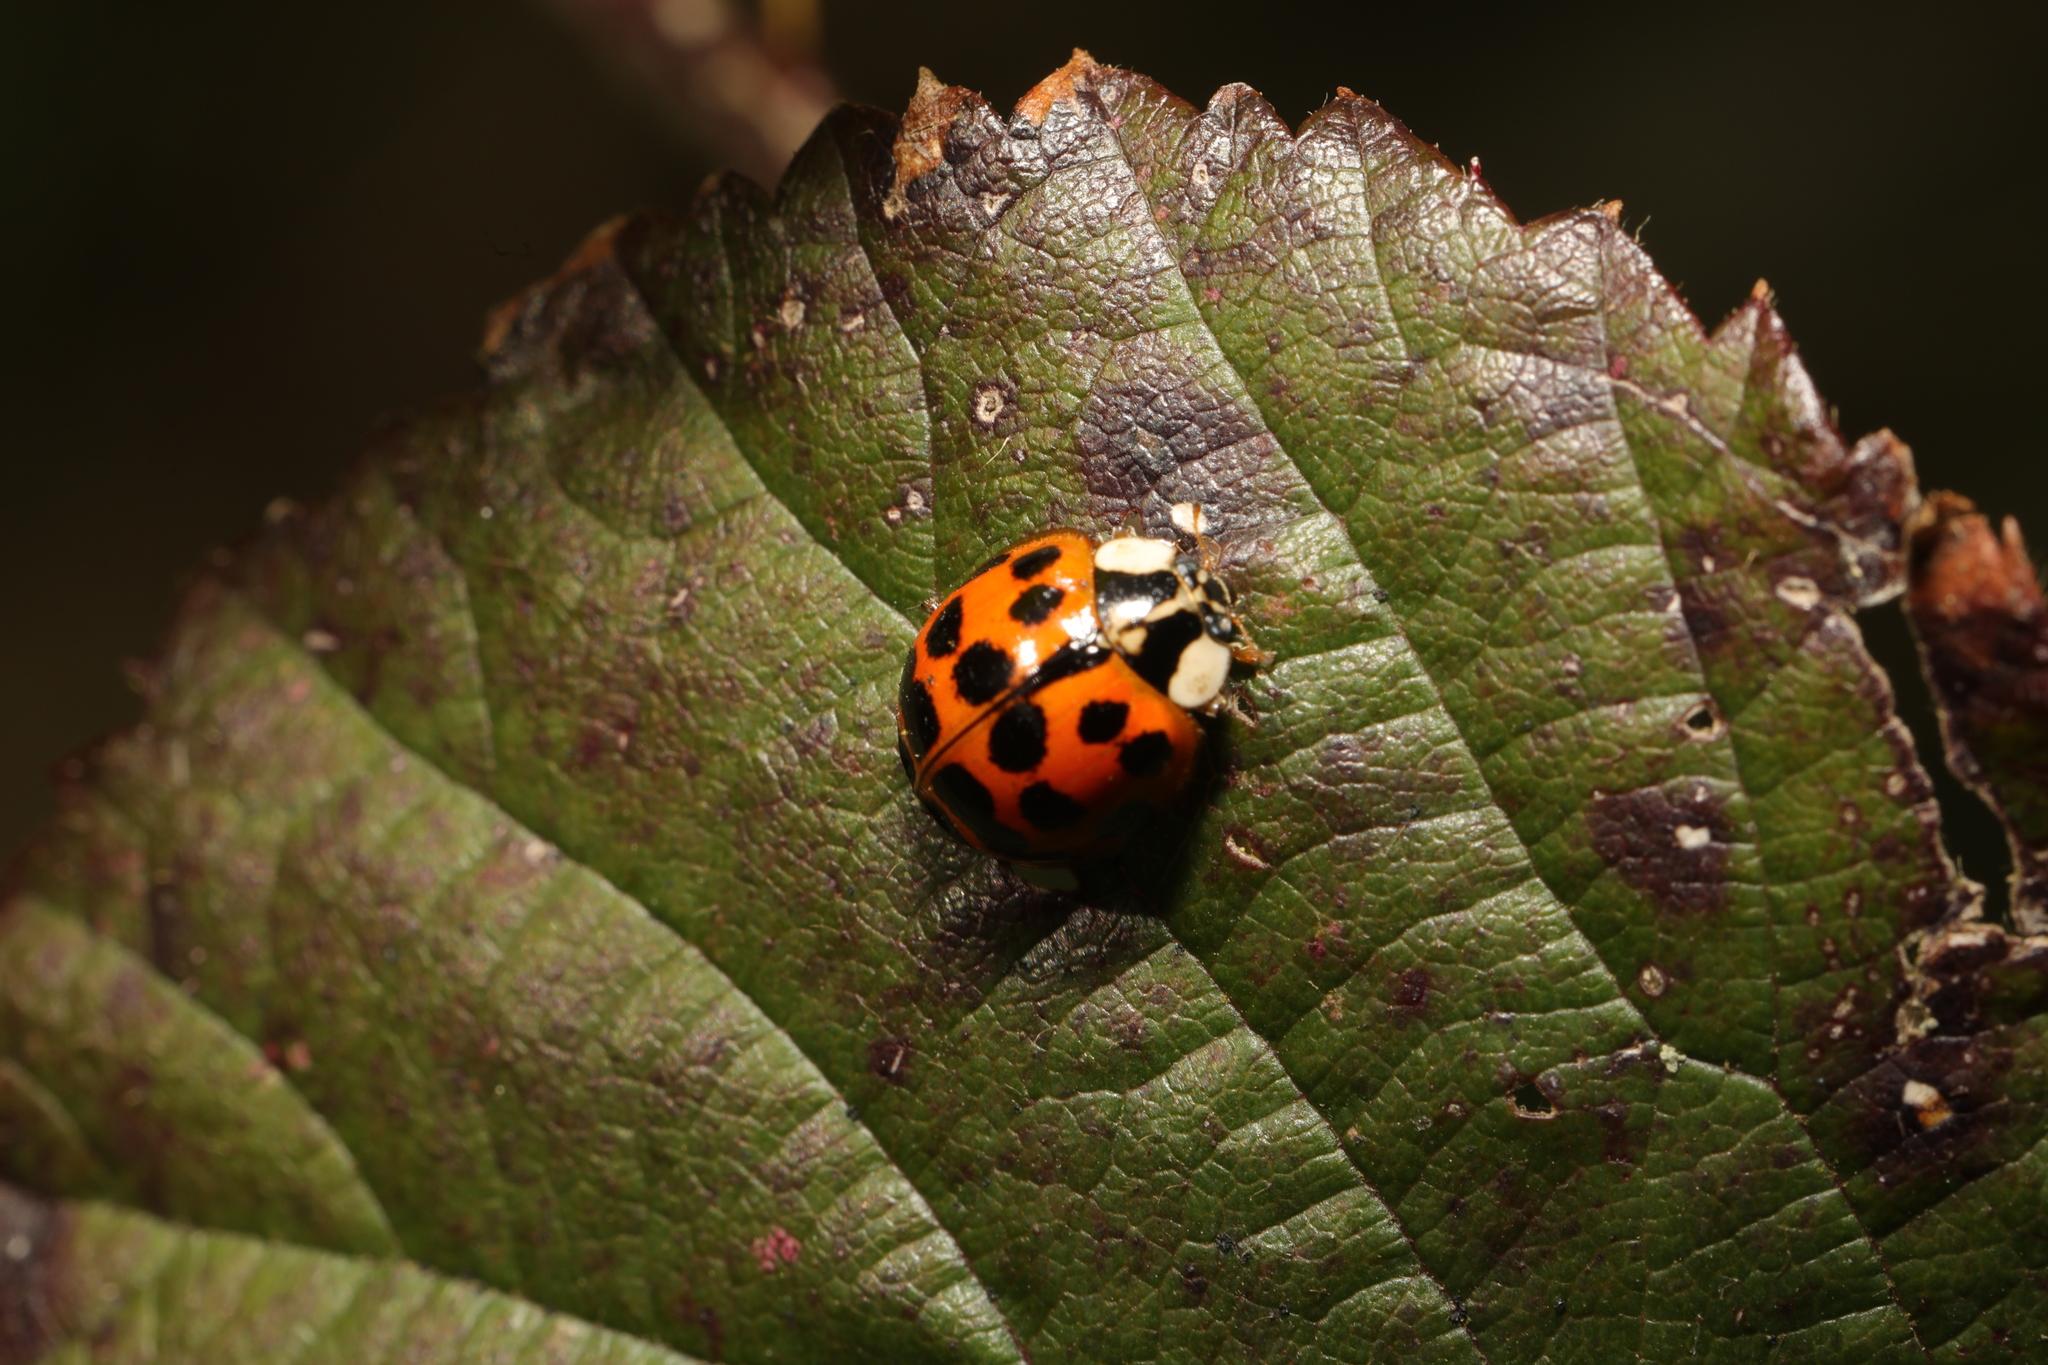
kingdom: Animalia
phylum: Arthropoda
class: Insecta
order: Coleoptera
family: Coccinellidae
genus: Harmonia
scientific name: Harmonia axyridis
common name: Harlequin ladybird
